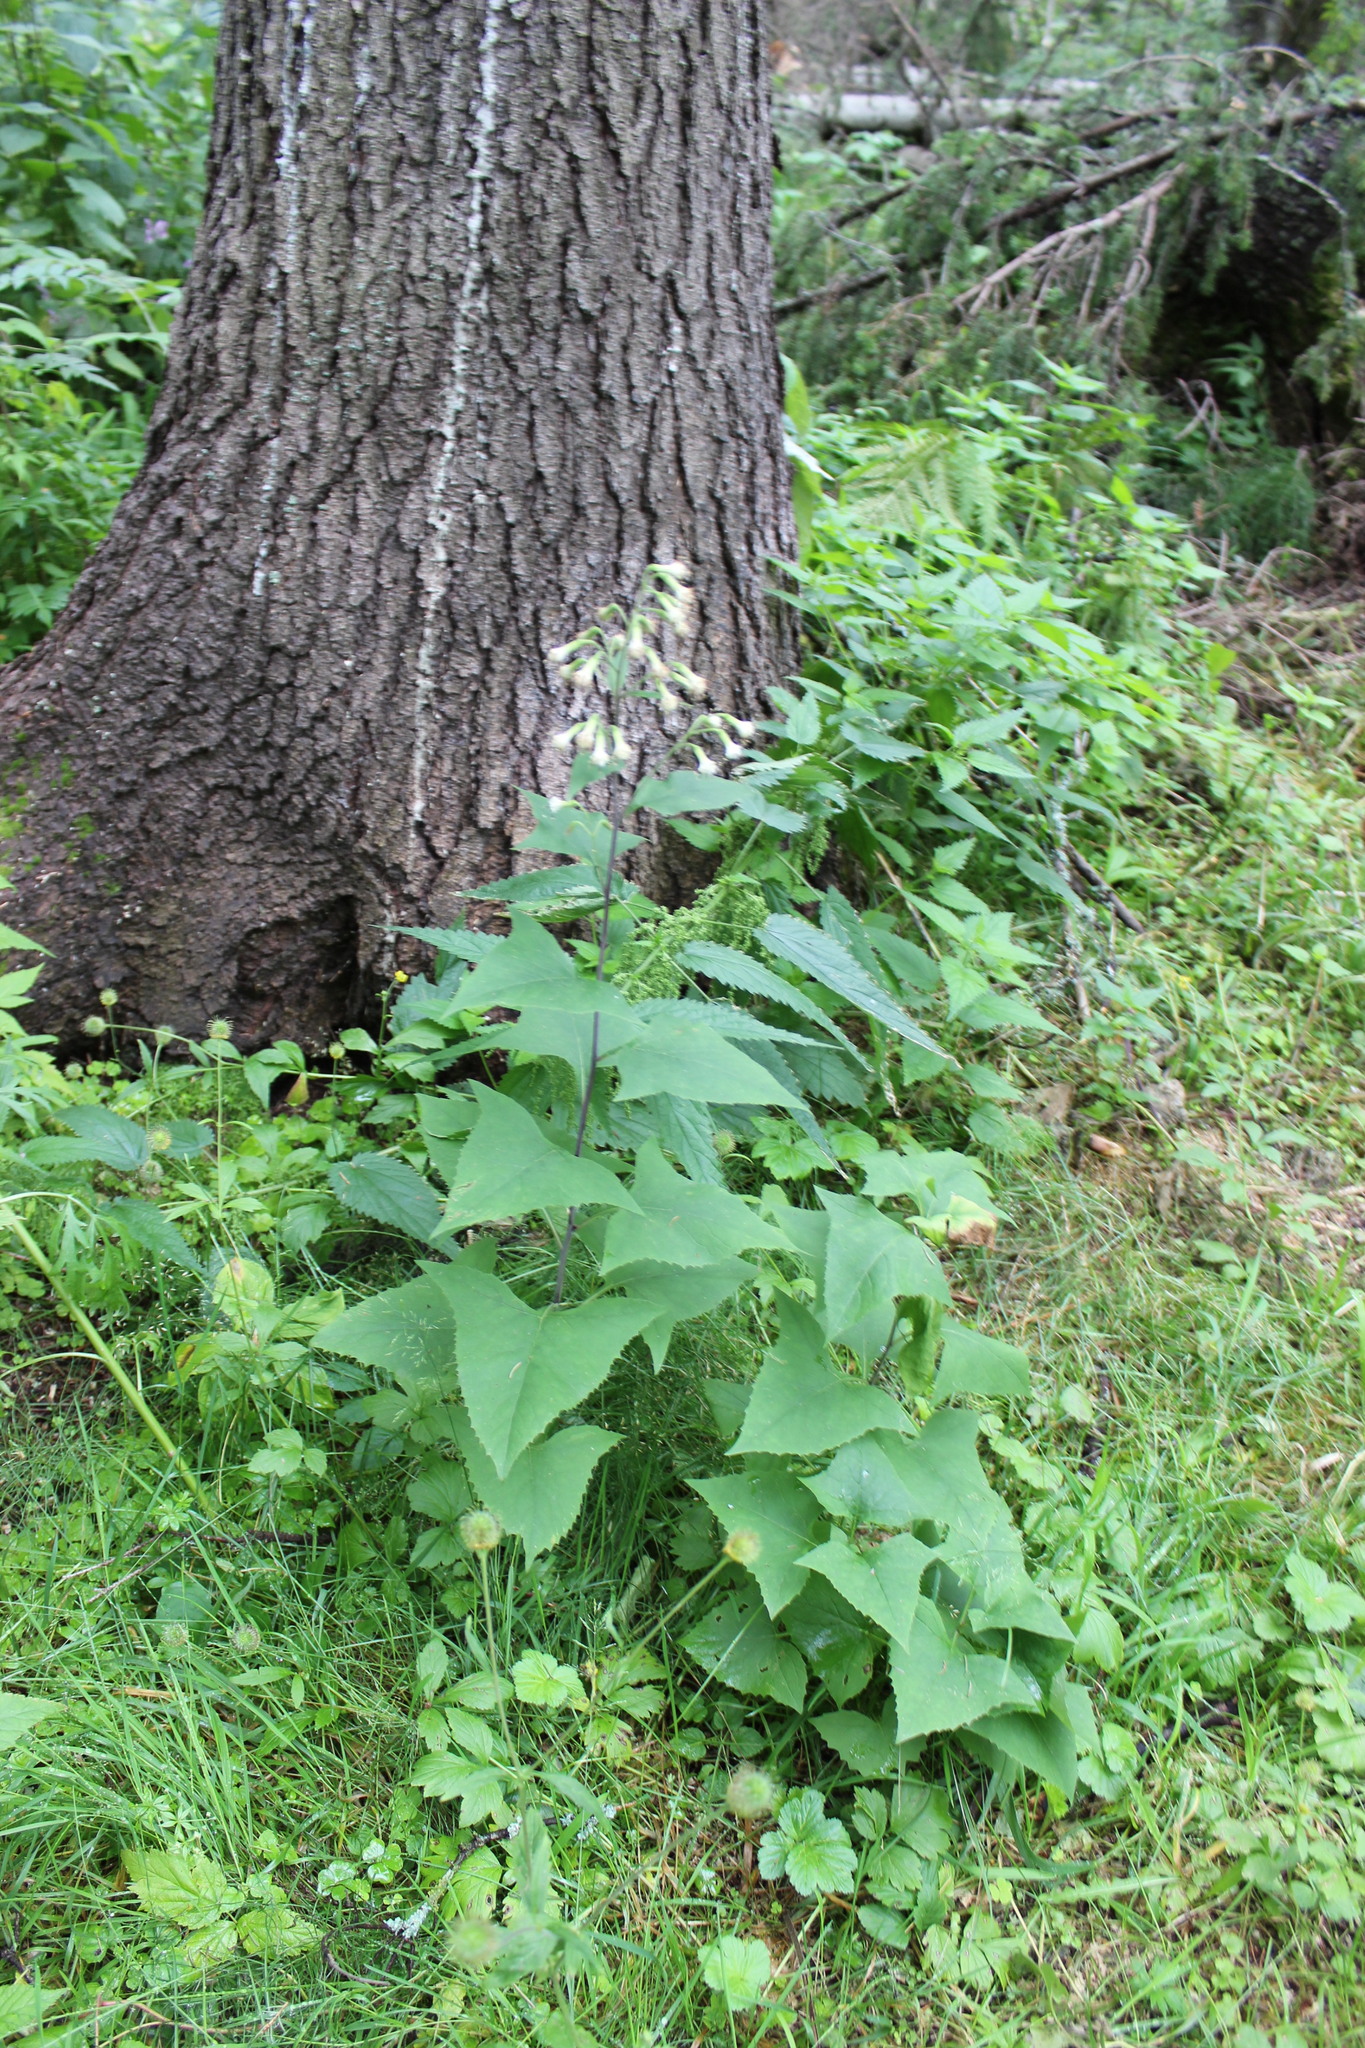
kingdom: Plantae
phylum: Tracheophyta
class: Magnoliopsida
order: Asterales
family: Asteraceae
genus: Parasenecio
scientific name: Parasenecio hastatus
